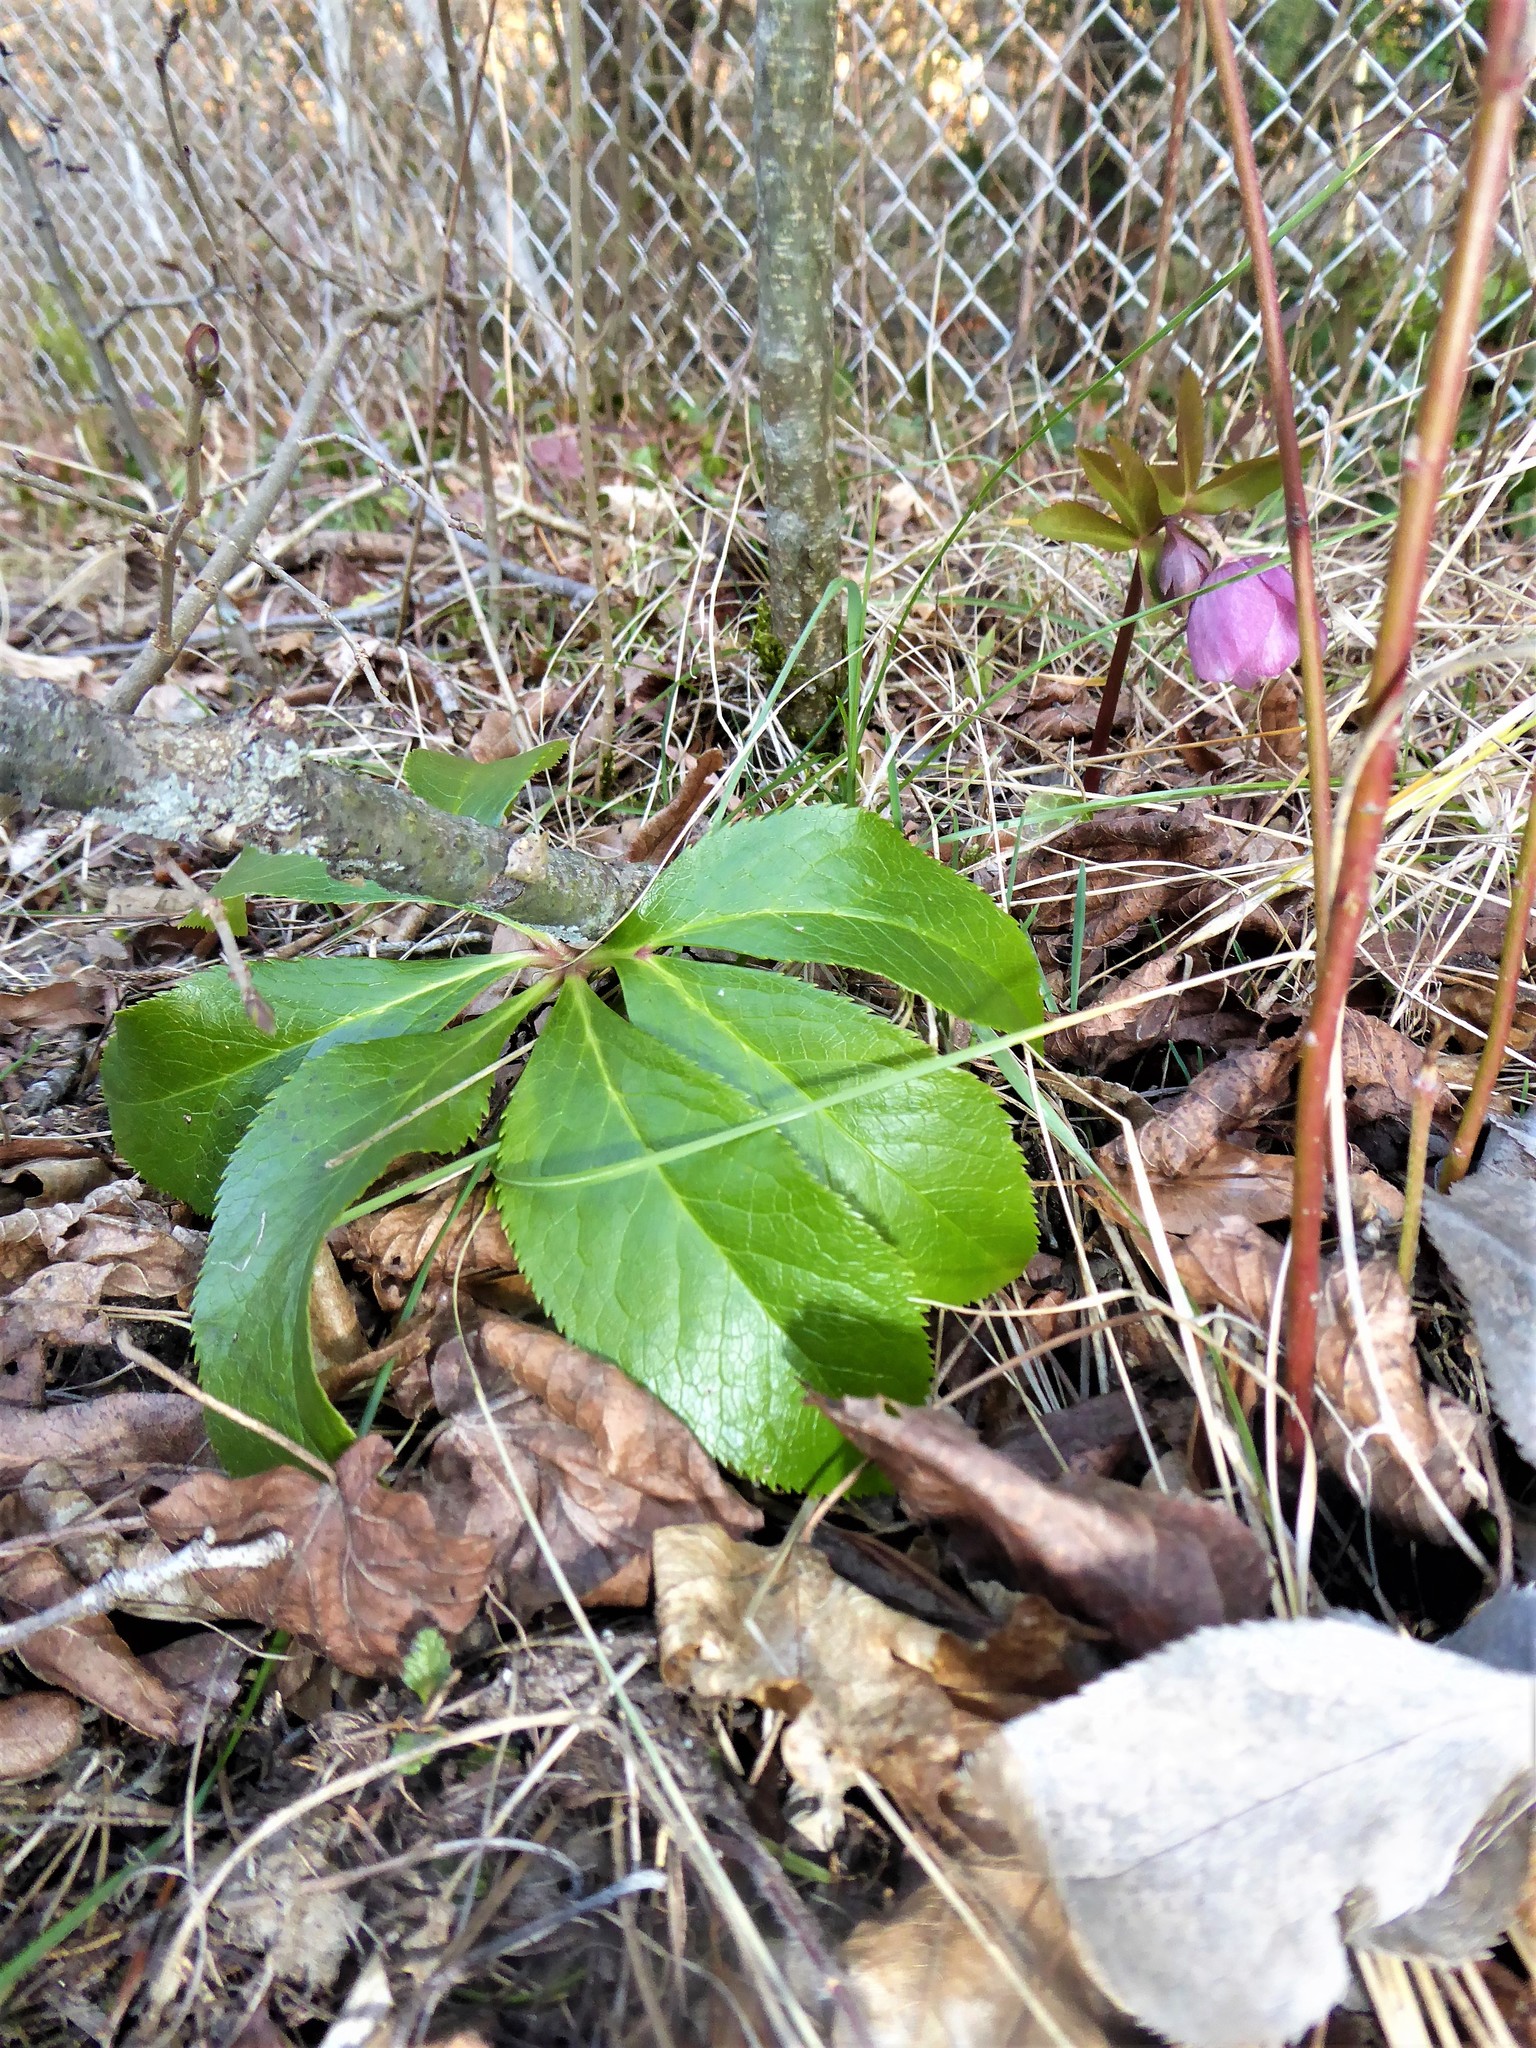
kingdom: Plantae
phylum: Tracheophyta
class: Magnoliopsida
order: Ranunculales
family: Ranunculaceae
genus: Helleborus
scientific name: Helleborus hybridus
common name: Hybrid lenten-rose
